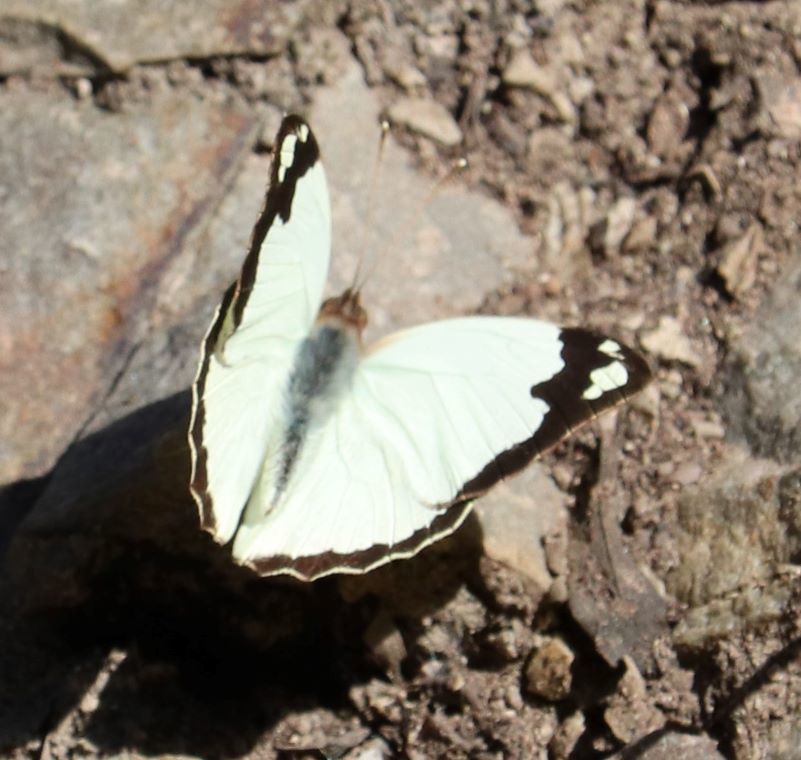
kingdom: Animalia
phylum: Arthropoda
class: Insecta
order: Lepidoptera
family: Pieridae
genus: Eronia
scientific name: Eronia cleodora
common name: Vine-leaf vagrant
